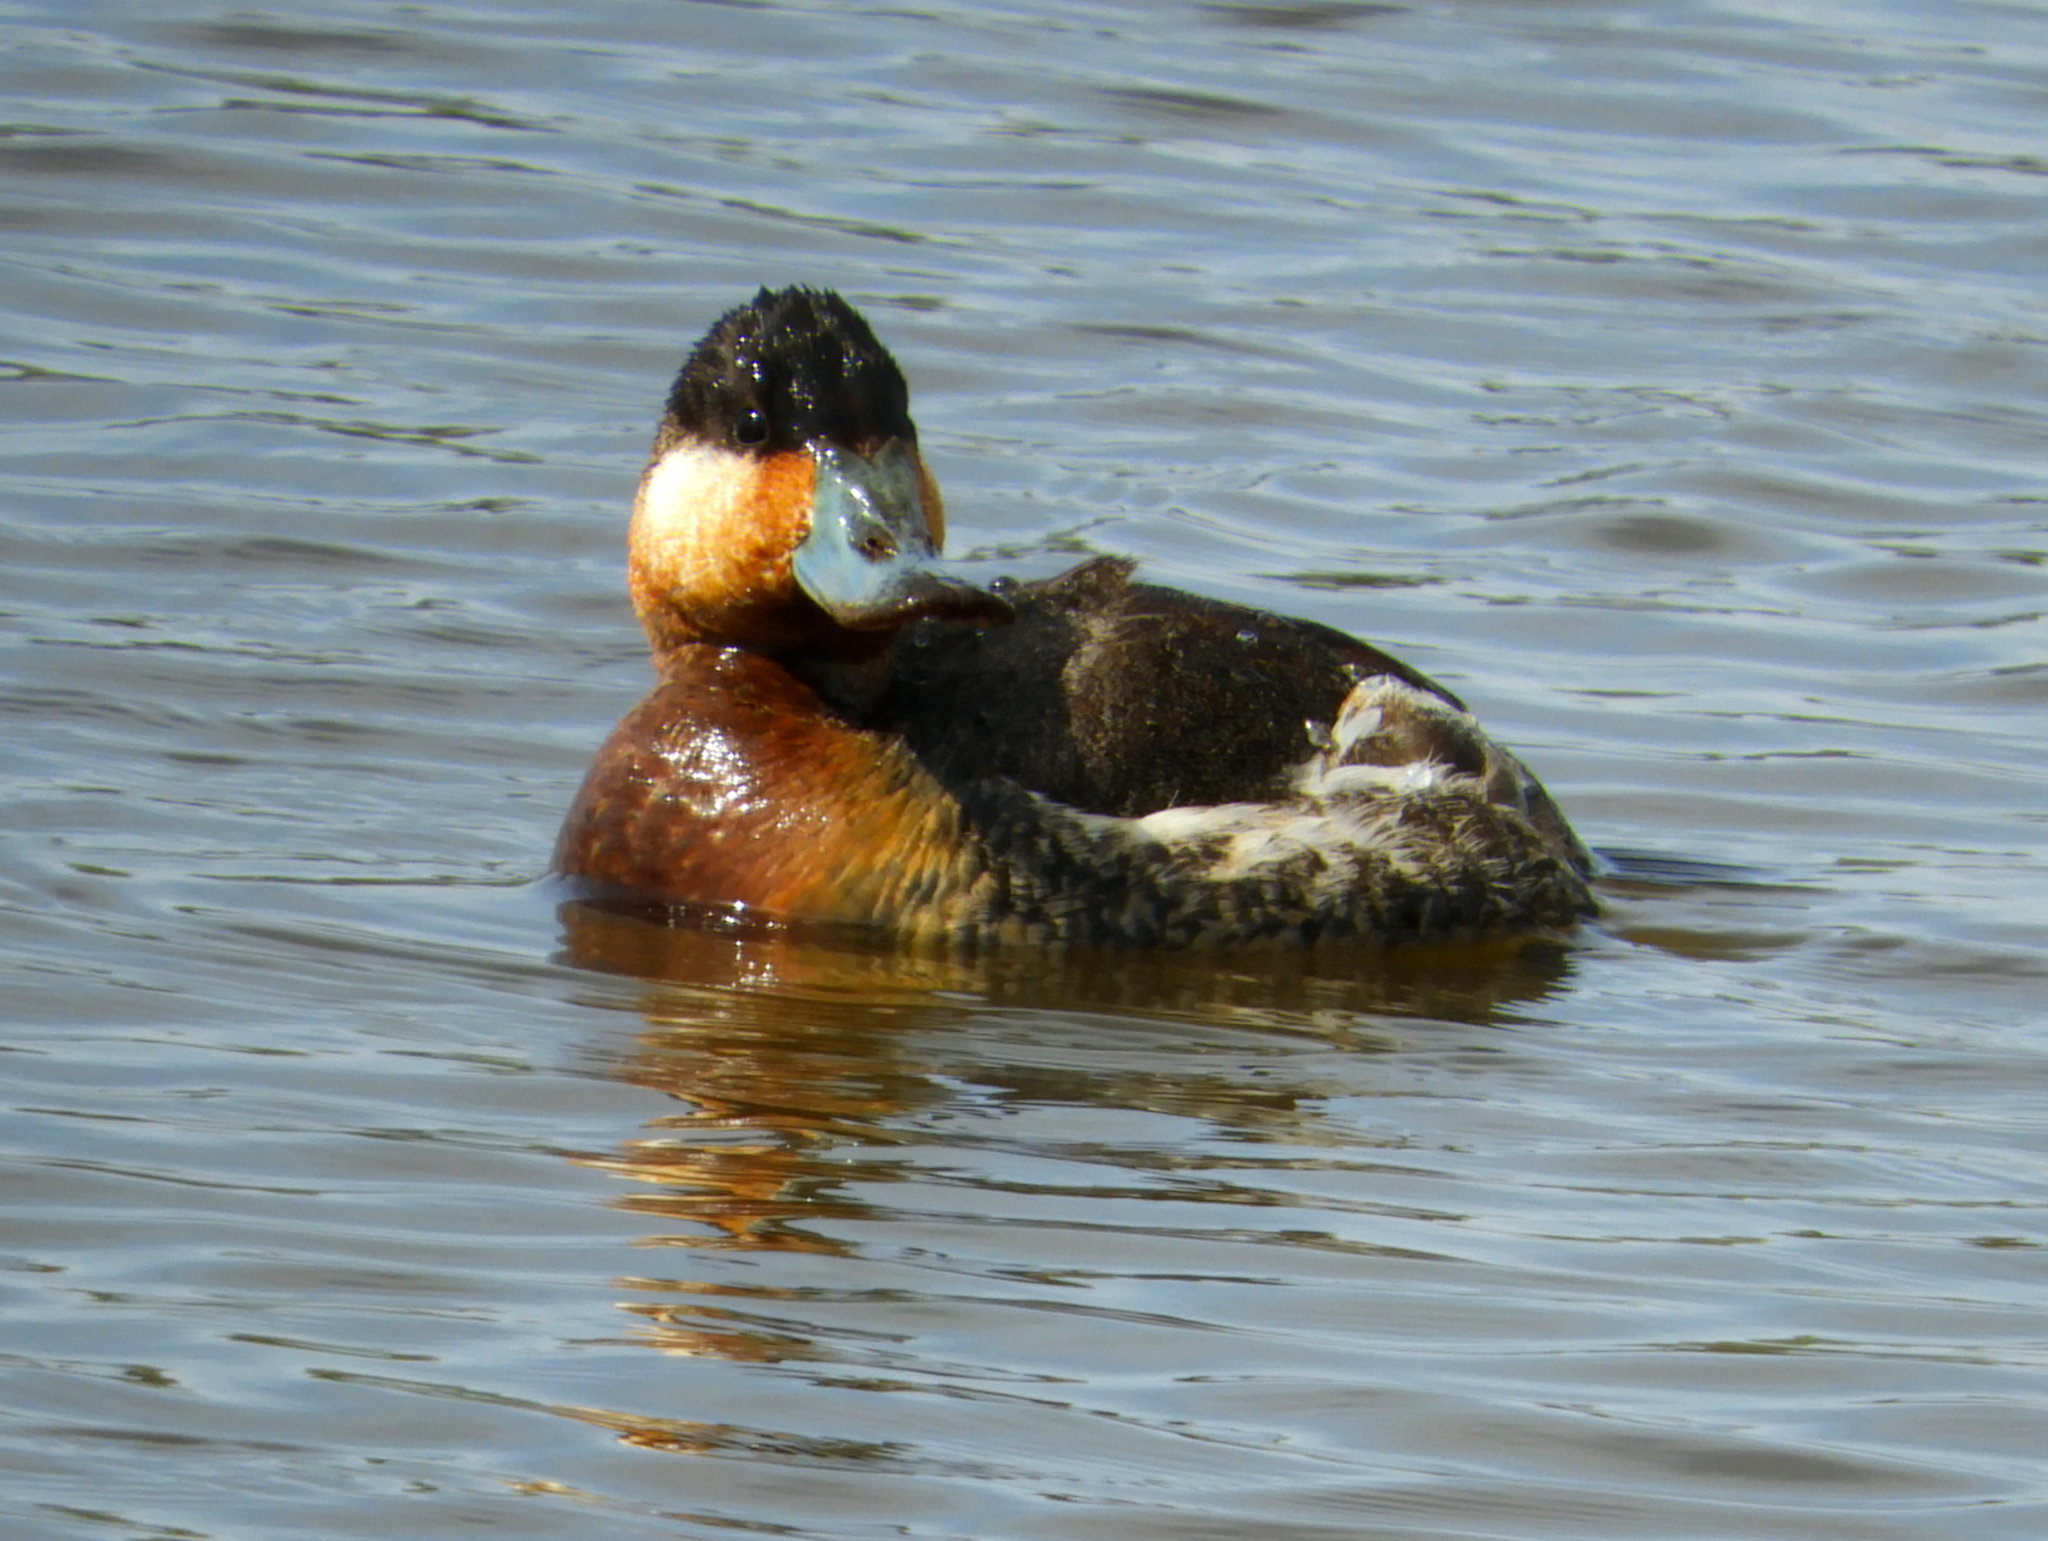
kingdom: Animalia
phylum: Chordata
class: Aves
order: Anseriformes
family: Anatidae
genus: Oxyura
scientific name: Oxyura jamaicensis
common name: Ruddy duck
